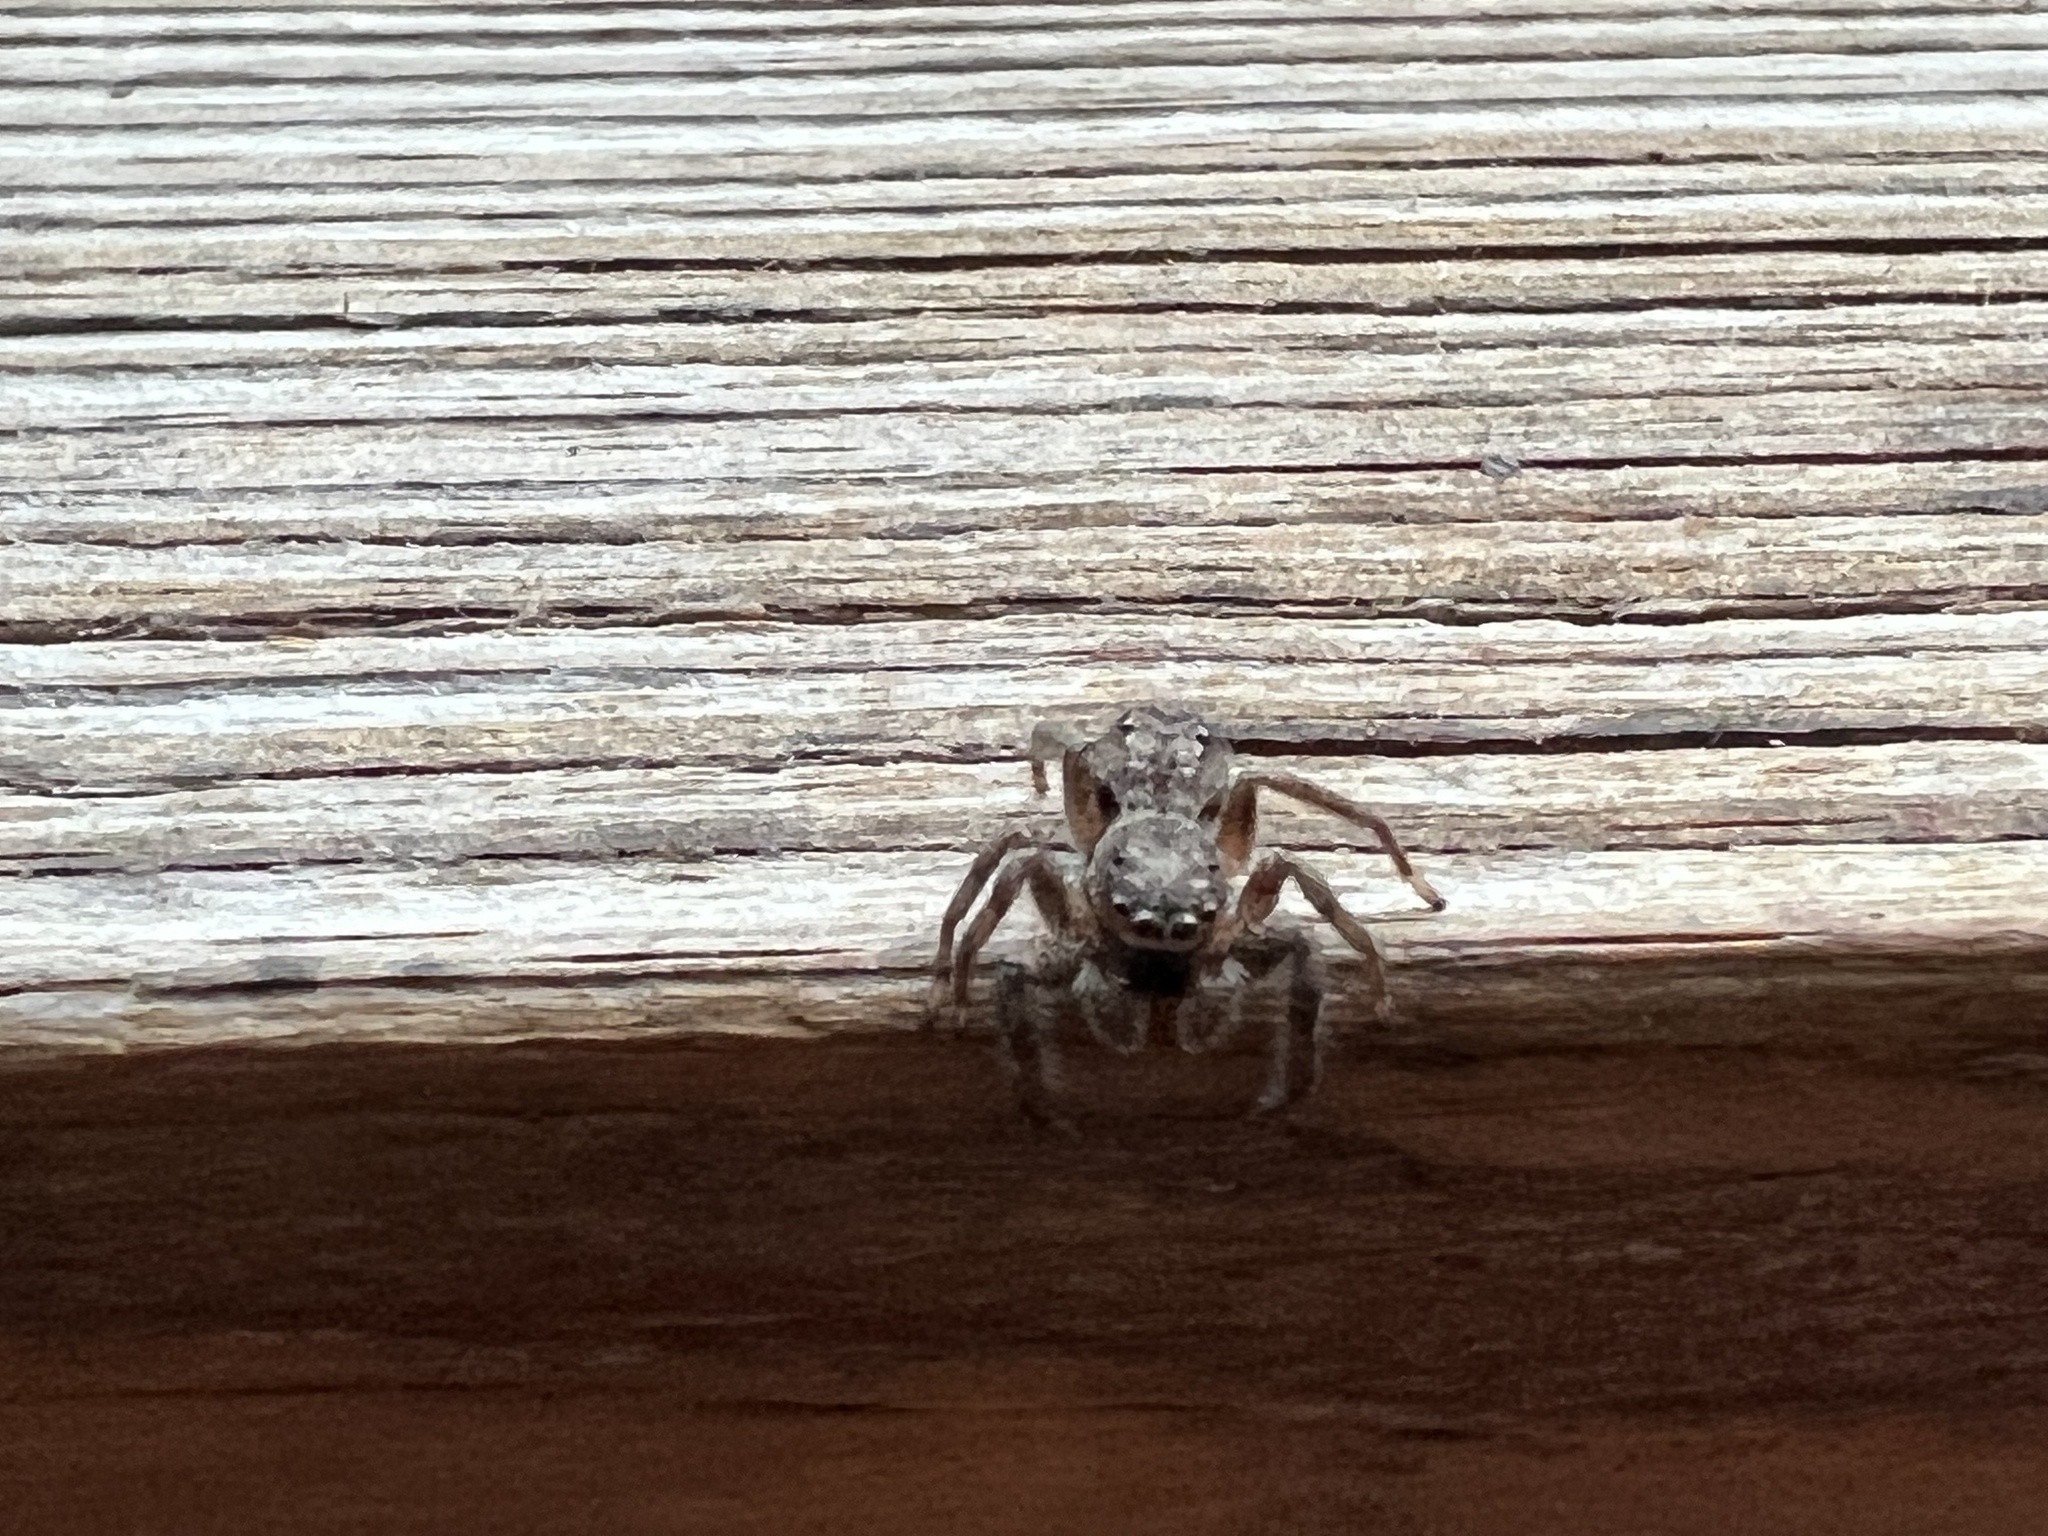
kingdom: Animalia
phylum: Arthropoda
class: Arachnida
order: Araneae
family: Salticidae
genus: Platycryptus
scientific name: Platycryptus undatus
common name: Tan jumping spider
